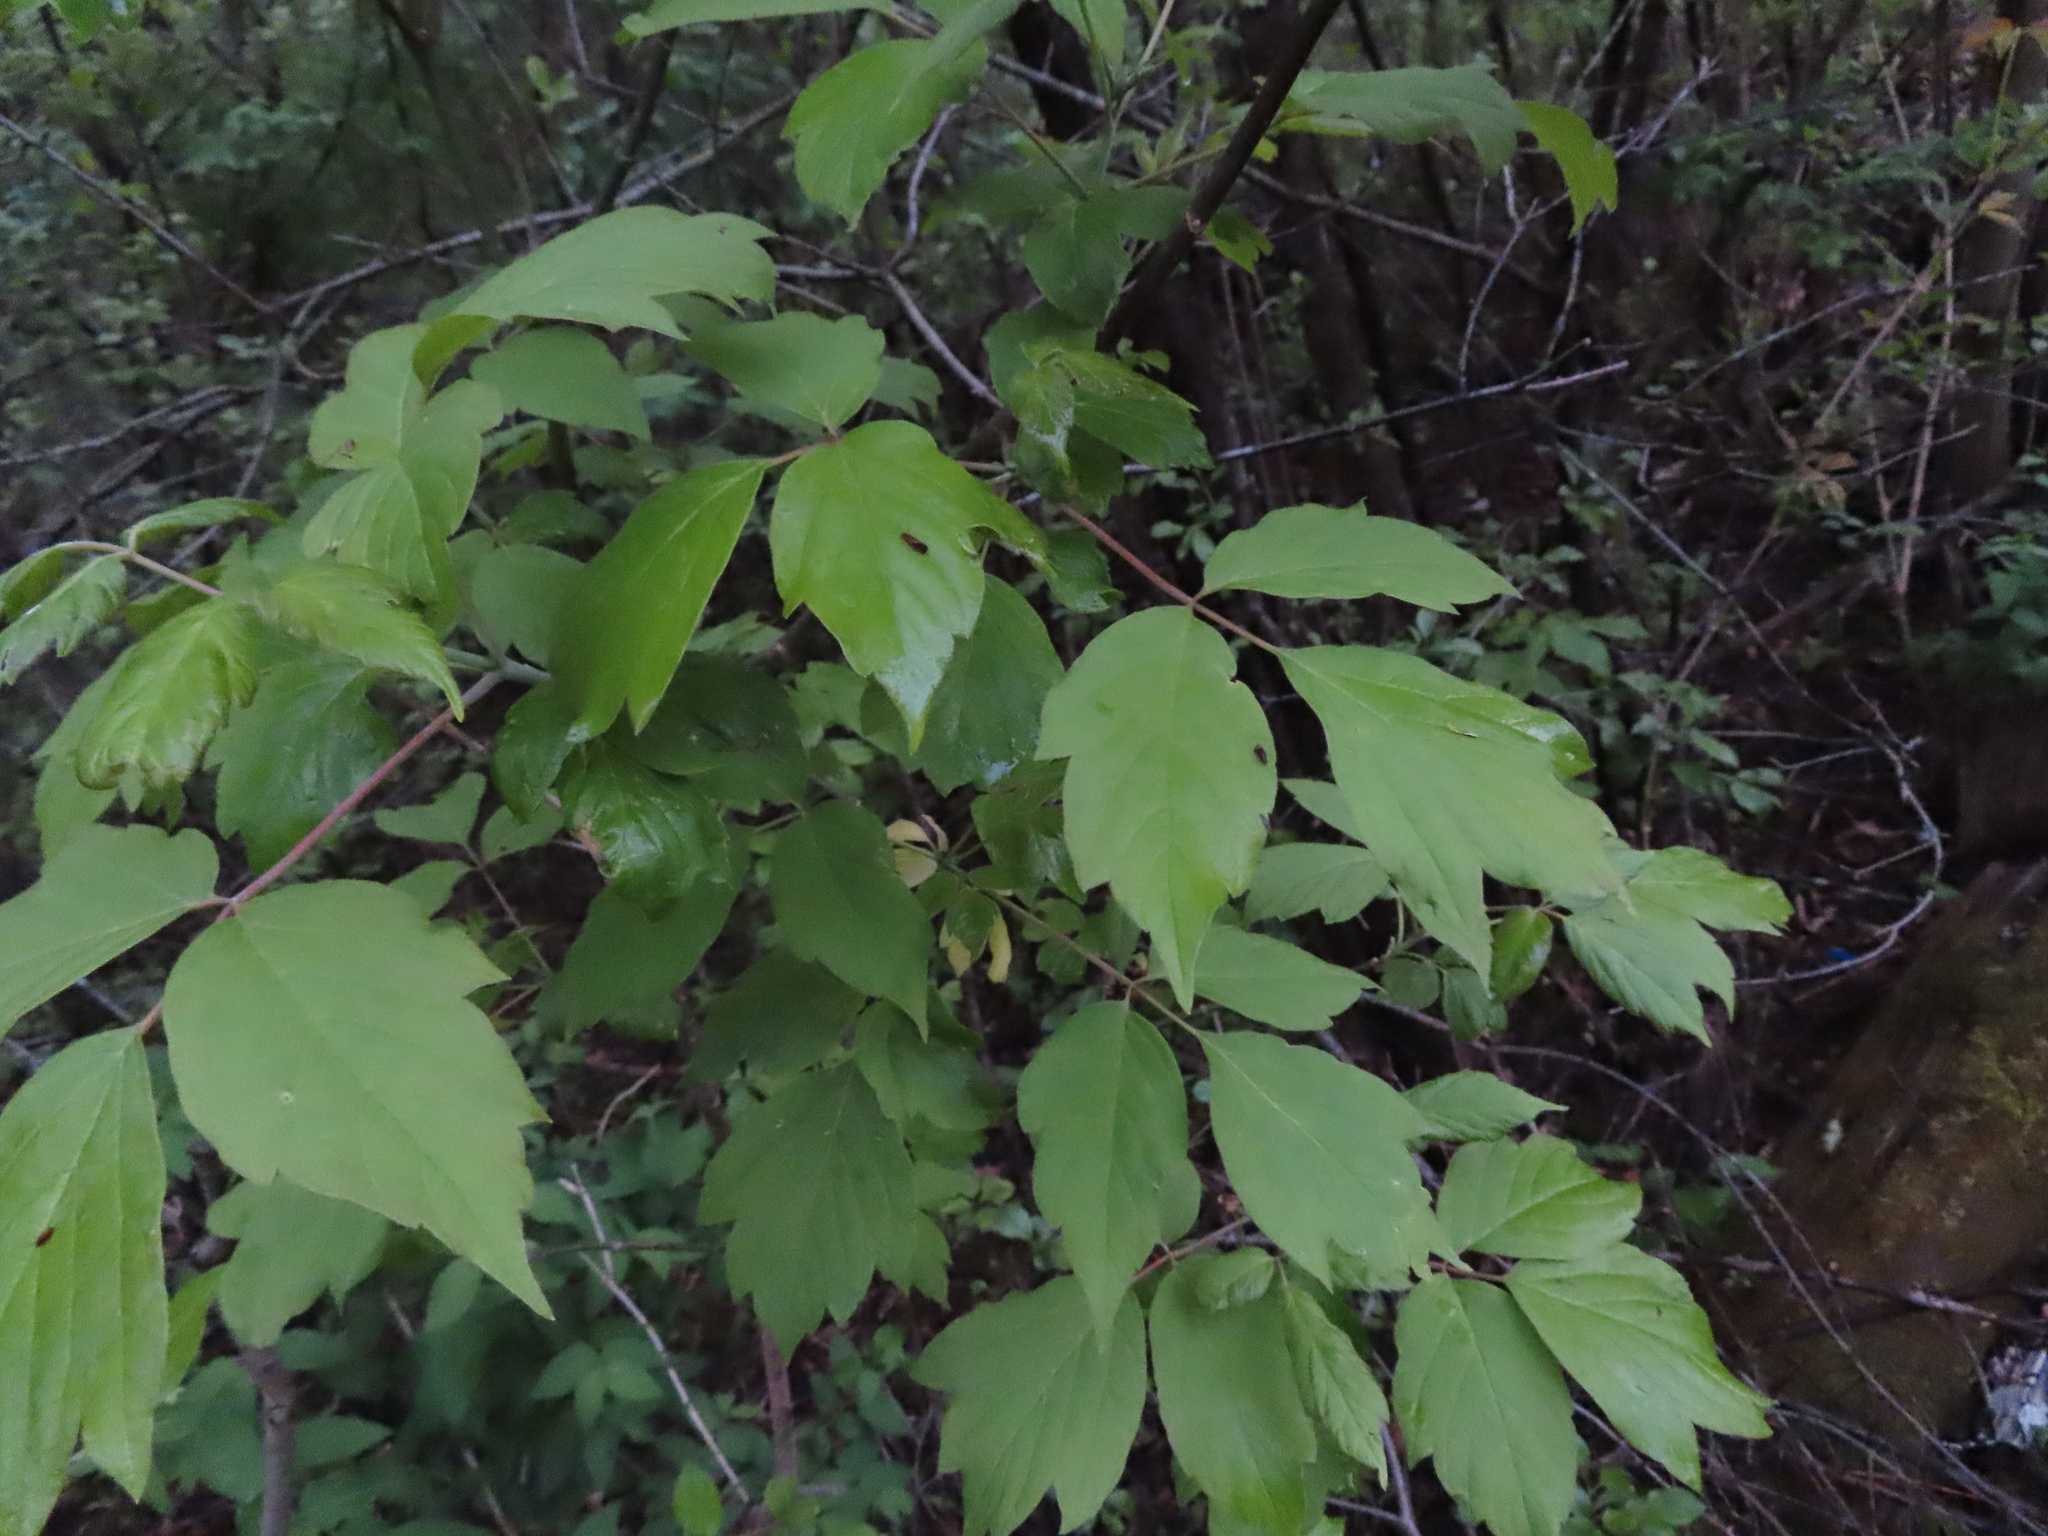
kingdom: Plantae
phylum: Tracheophyta
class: Magnoliopsida
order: Sapindales
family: Sapindaceae
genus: Acer
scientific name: Acer negundo
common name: Ashleaf maple
